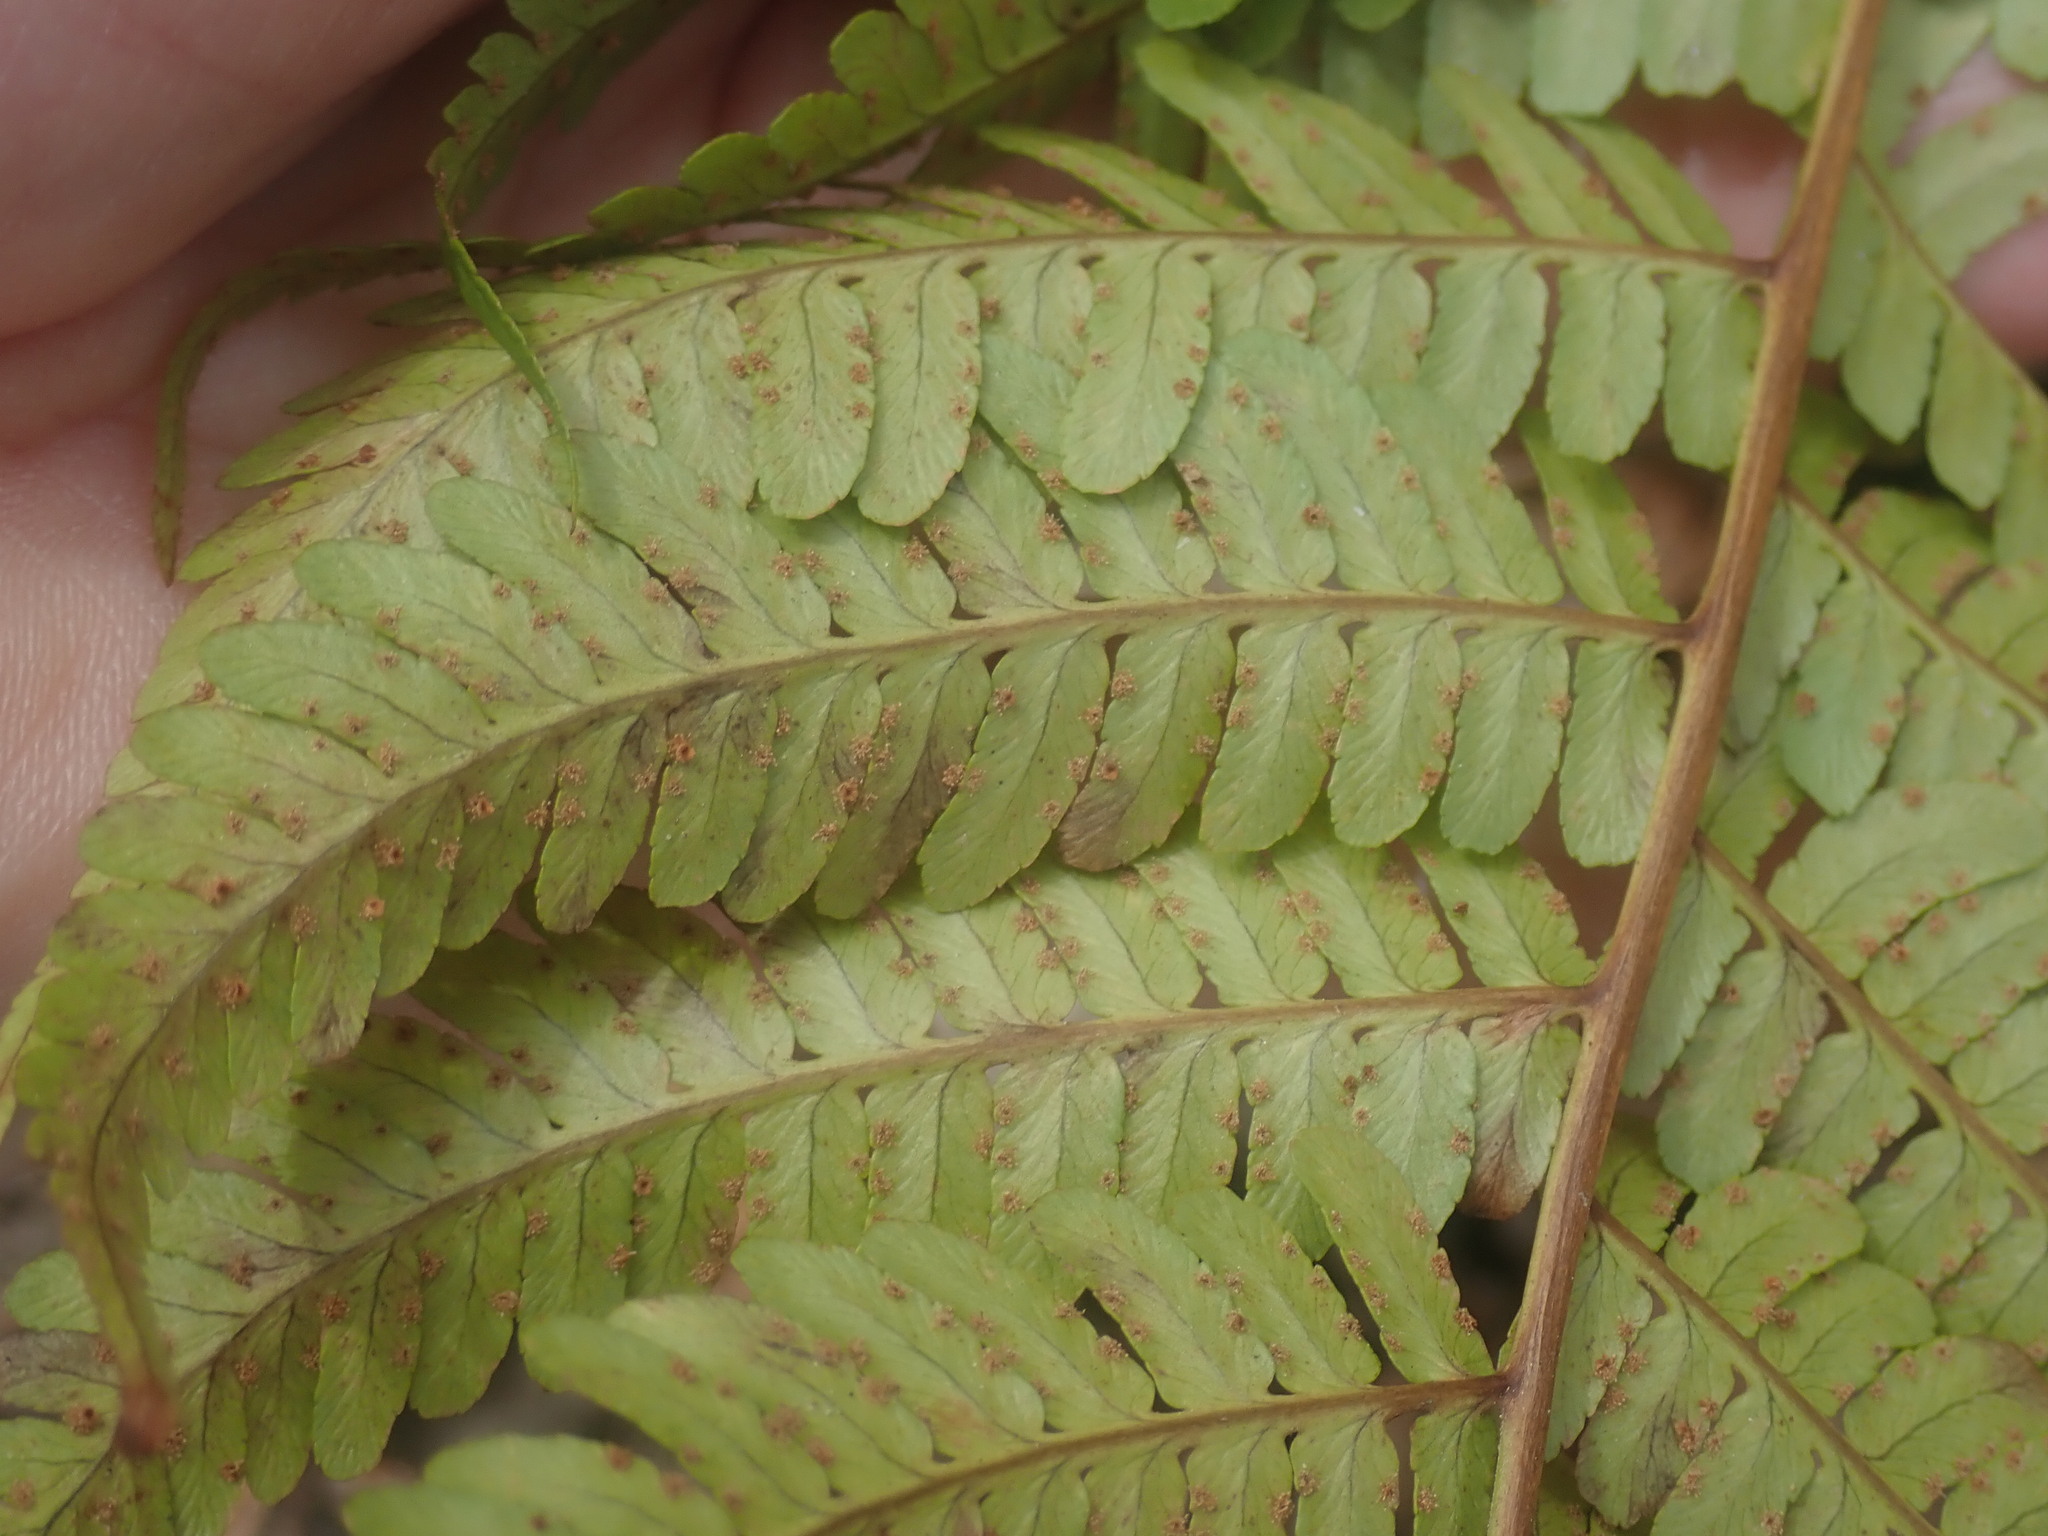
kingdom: Plantae
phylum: Tracheophyta
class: Polypodiopsida
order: Polypodiales
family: Dryopteridaceae
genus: Dryopteris
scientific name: Dryopteris marginalis
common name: Marginal wood fern
